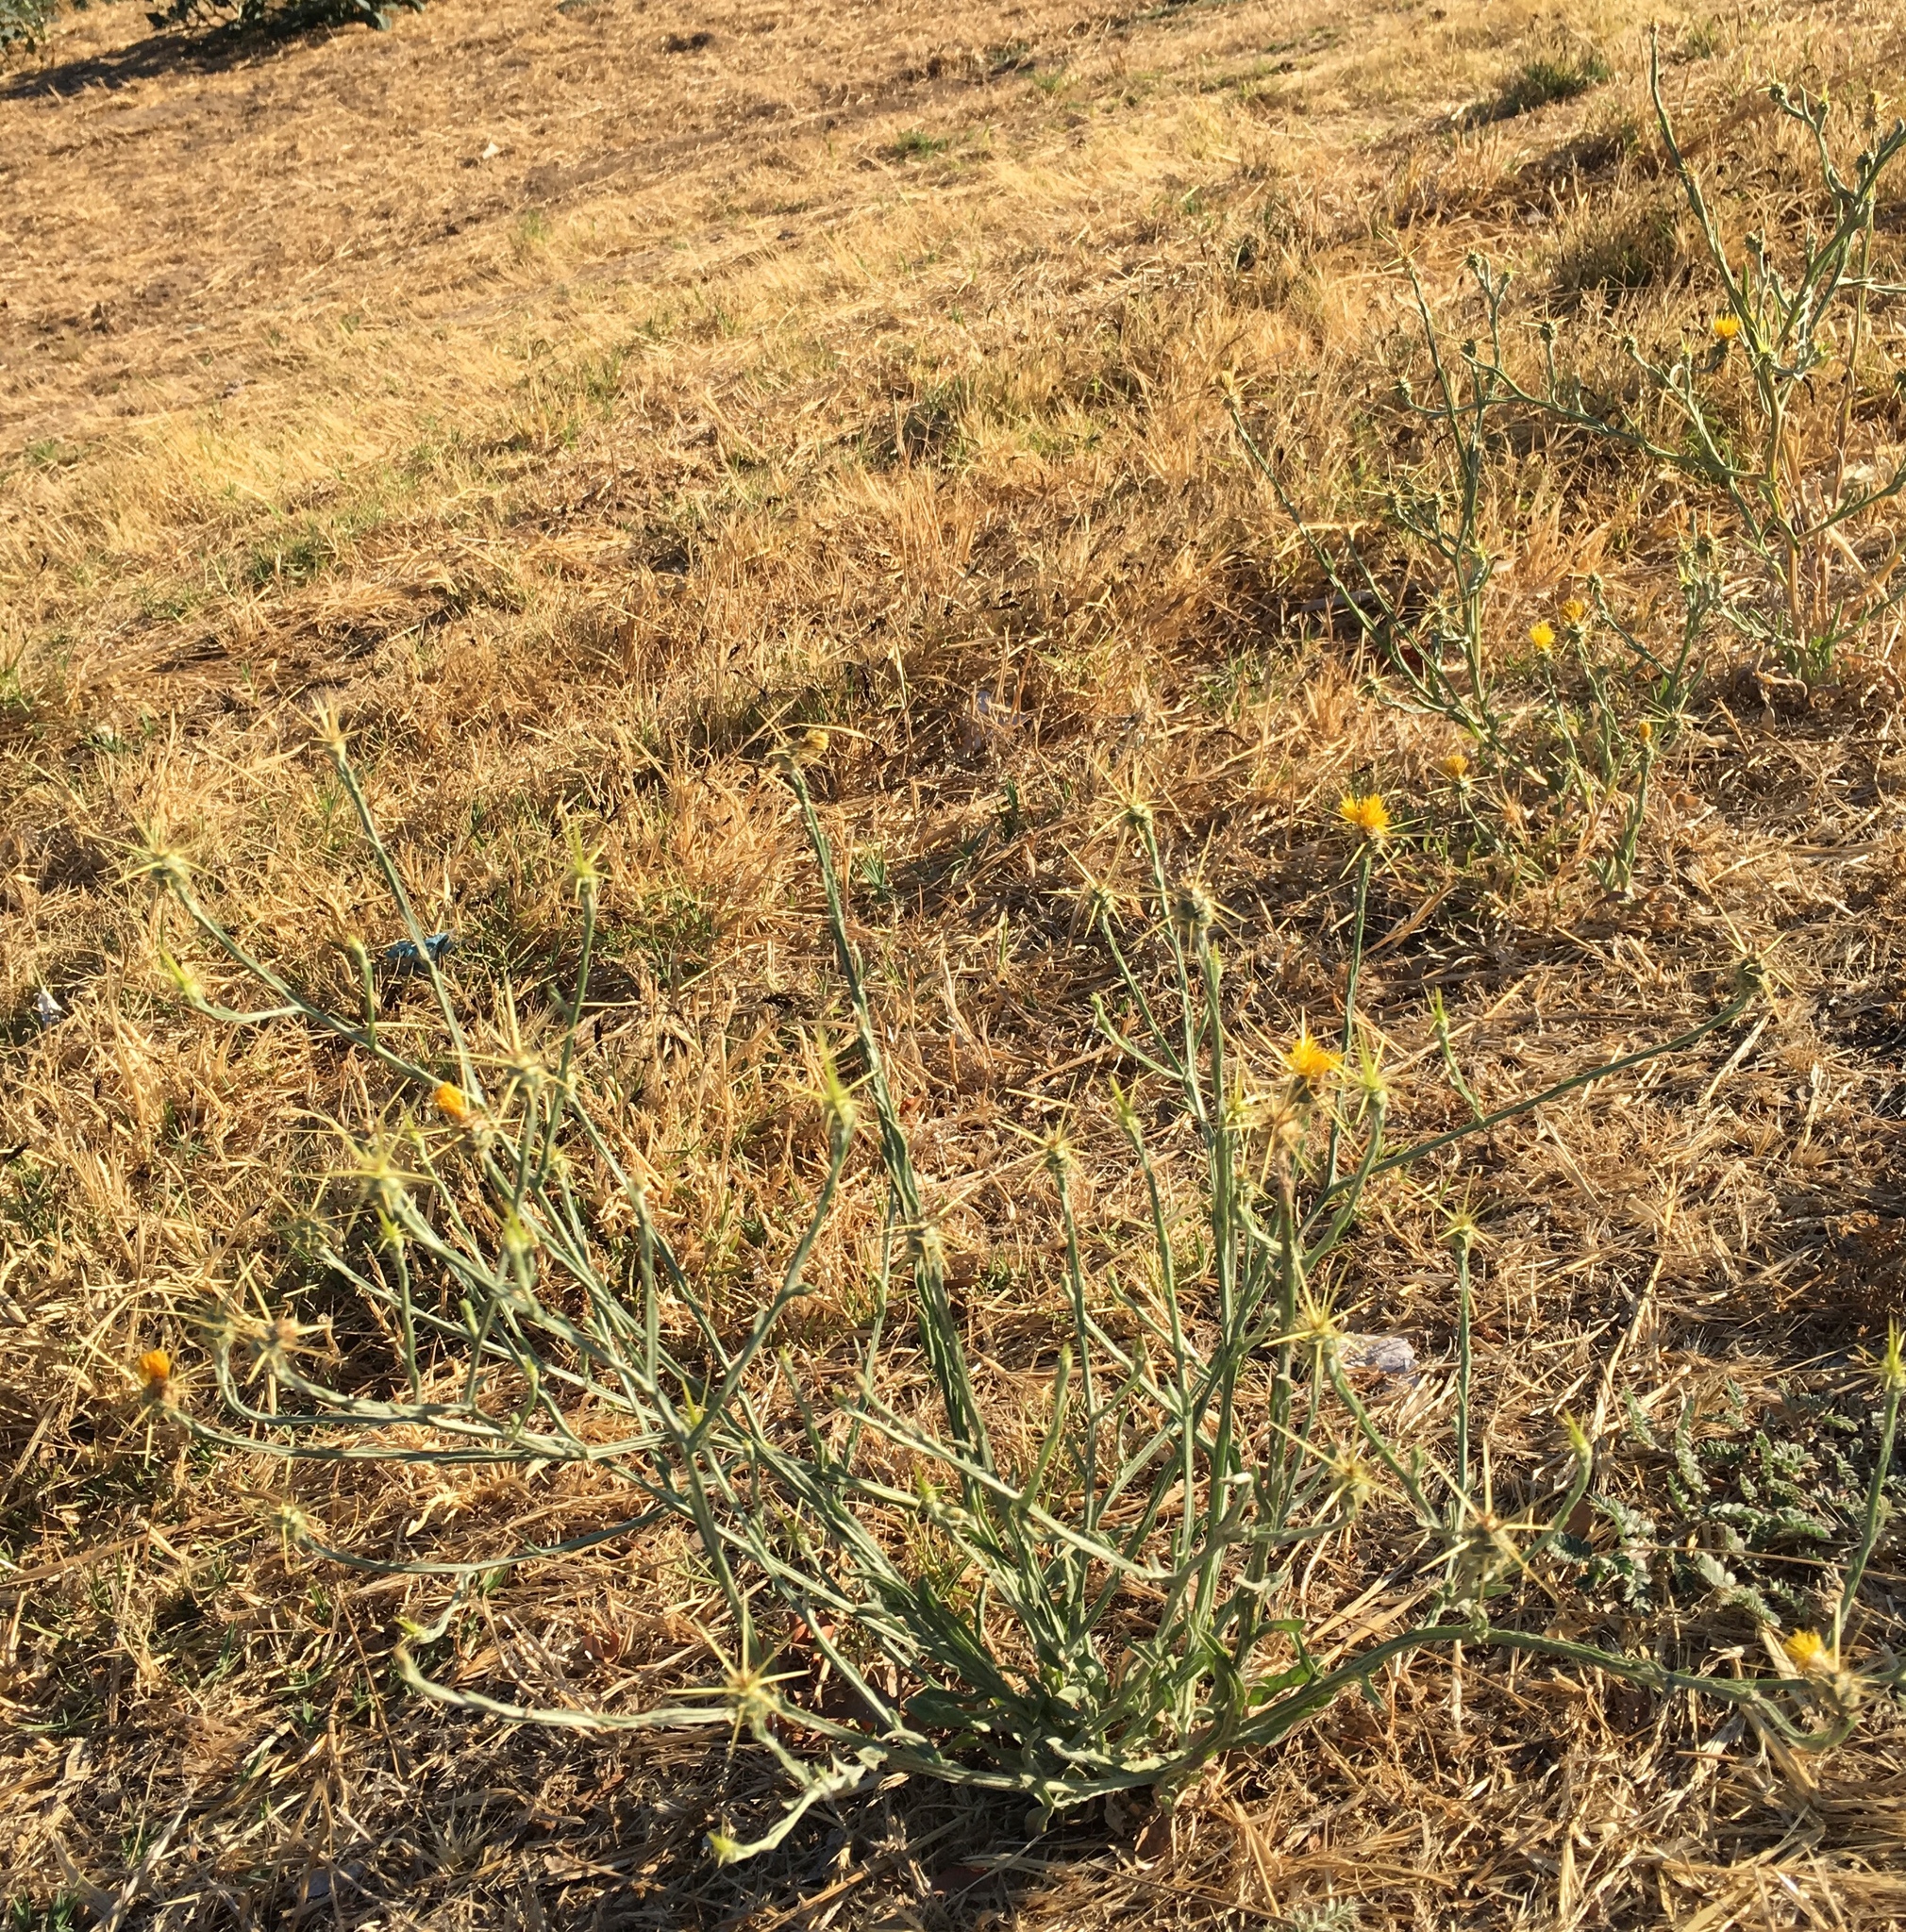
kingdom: Plantae
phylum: Tracheophyta
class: Magnoliopsida
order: Asterales
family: Asteraceae
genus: Centaurea
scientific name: Centaurea solstitialis
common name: Yellow star-thistle
